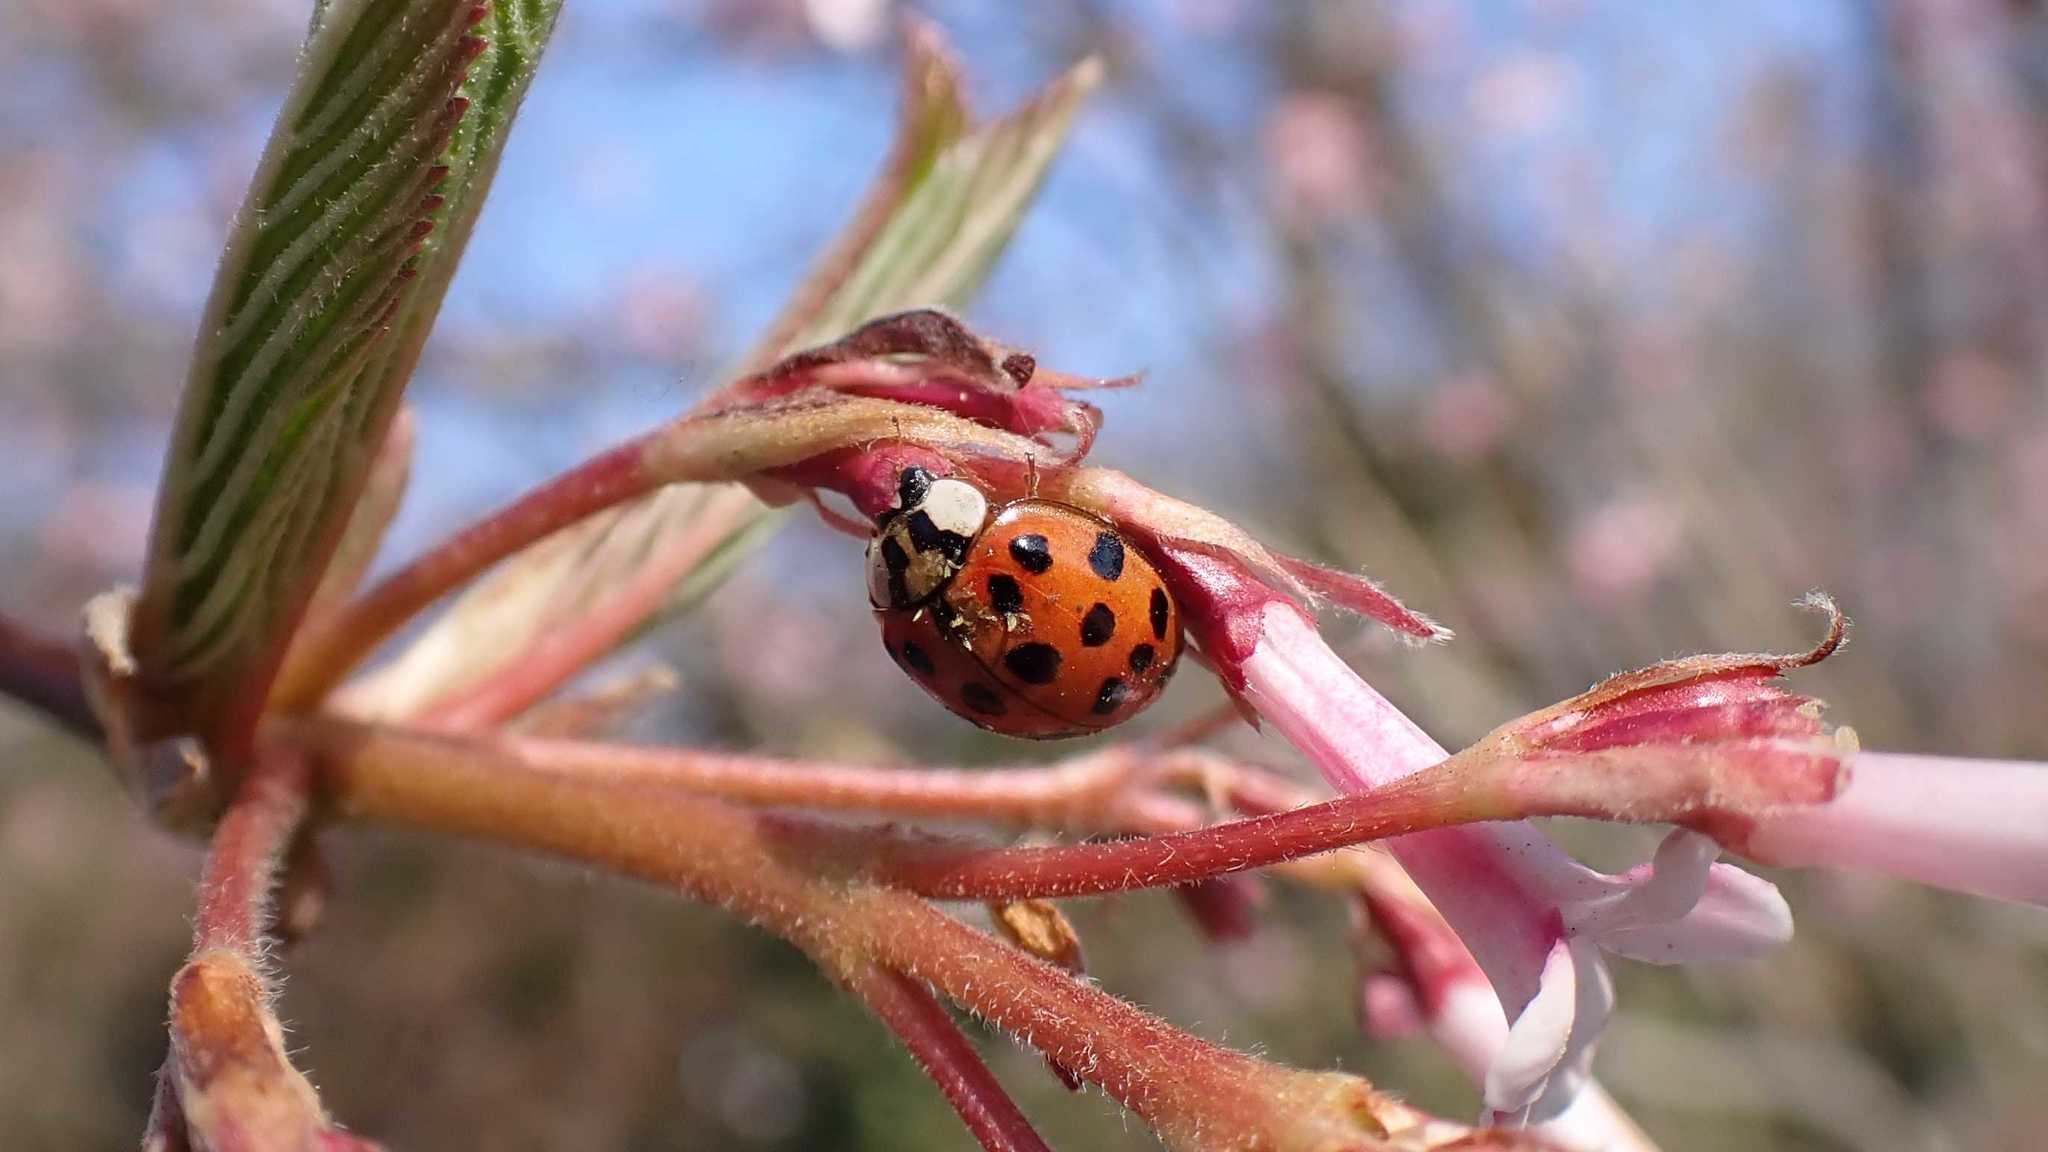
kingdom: Animalia
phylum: Arthropoda
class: Insecta
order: Coleoptera
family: Coccinellidae
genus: Harmonia
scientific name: Harmonia axyridis
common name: Harlequin ladybird
